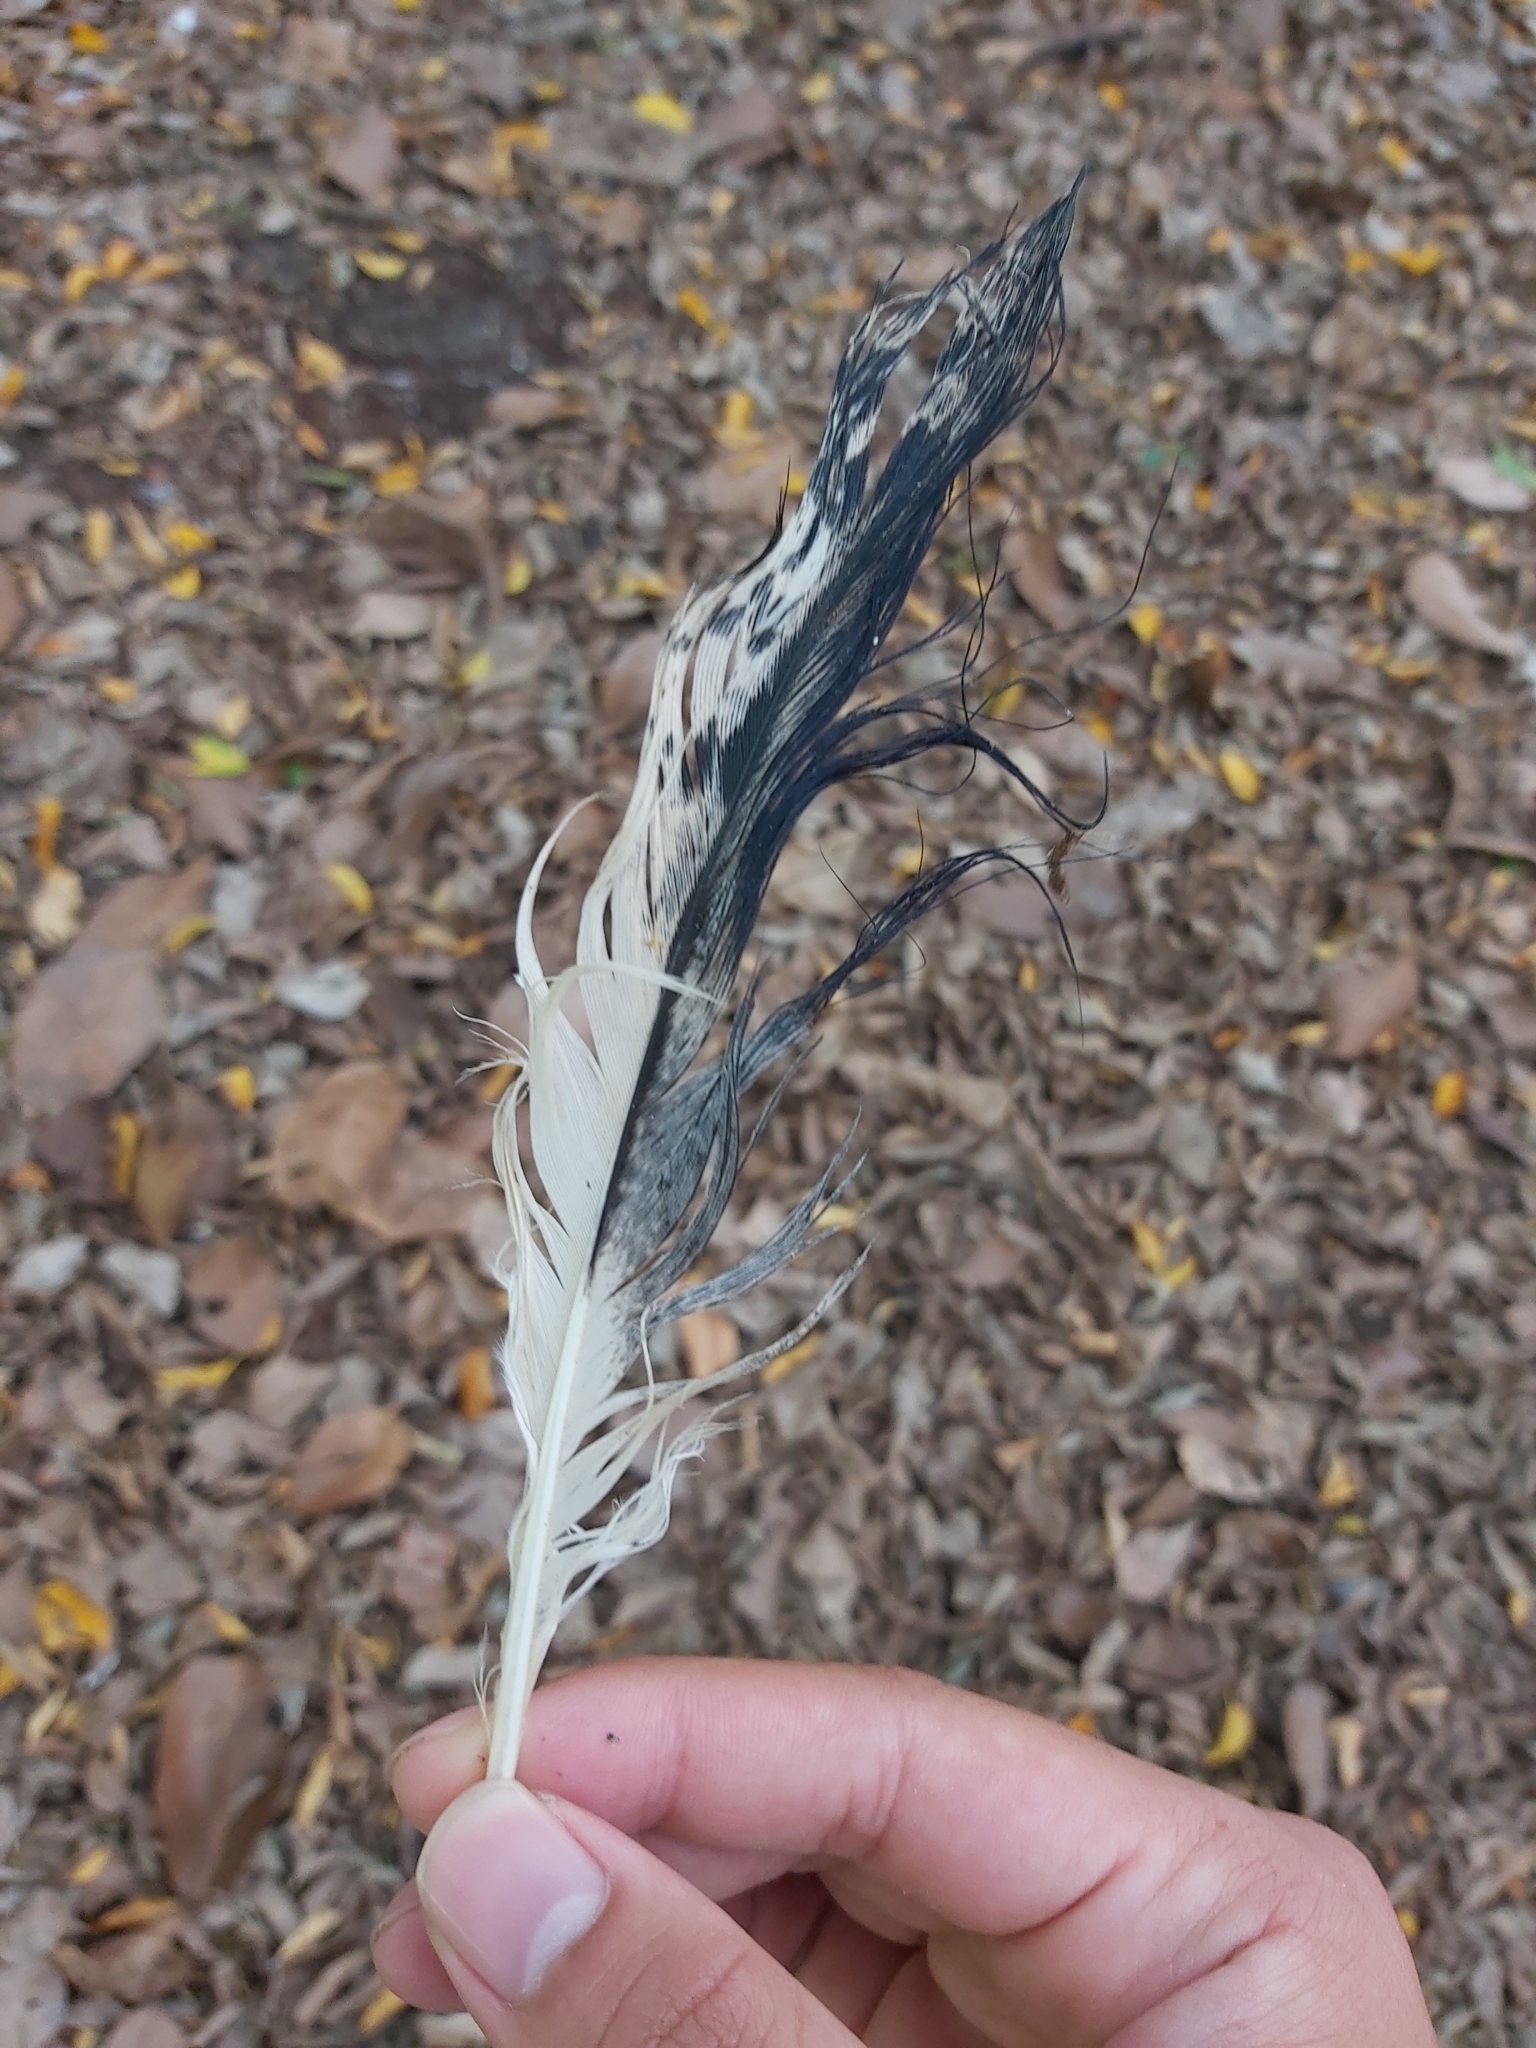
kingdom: Animalia
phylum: Chordata
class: Aves
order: Pelecaniformes
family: Threskiornithidae
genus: Threskiornis
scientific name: Threskiornis molucca
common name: Australian white ibis
